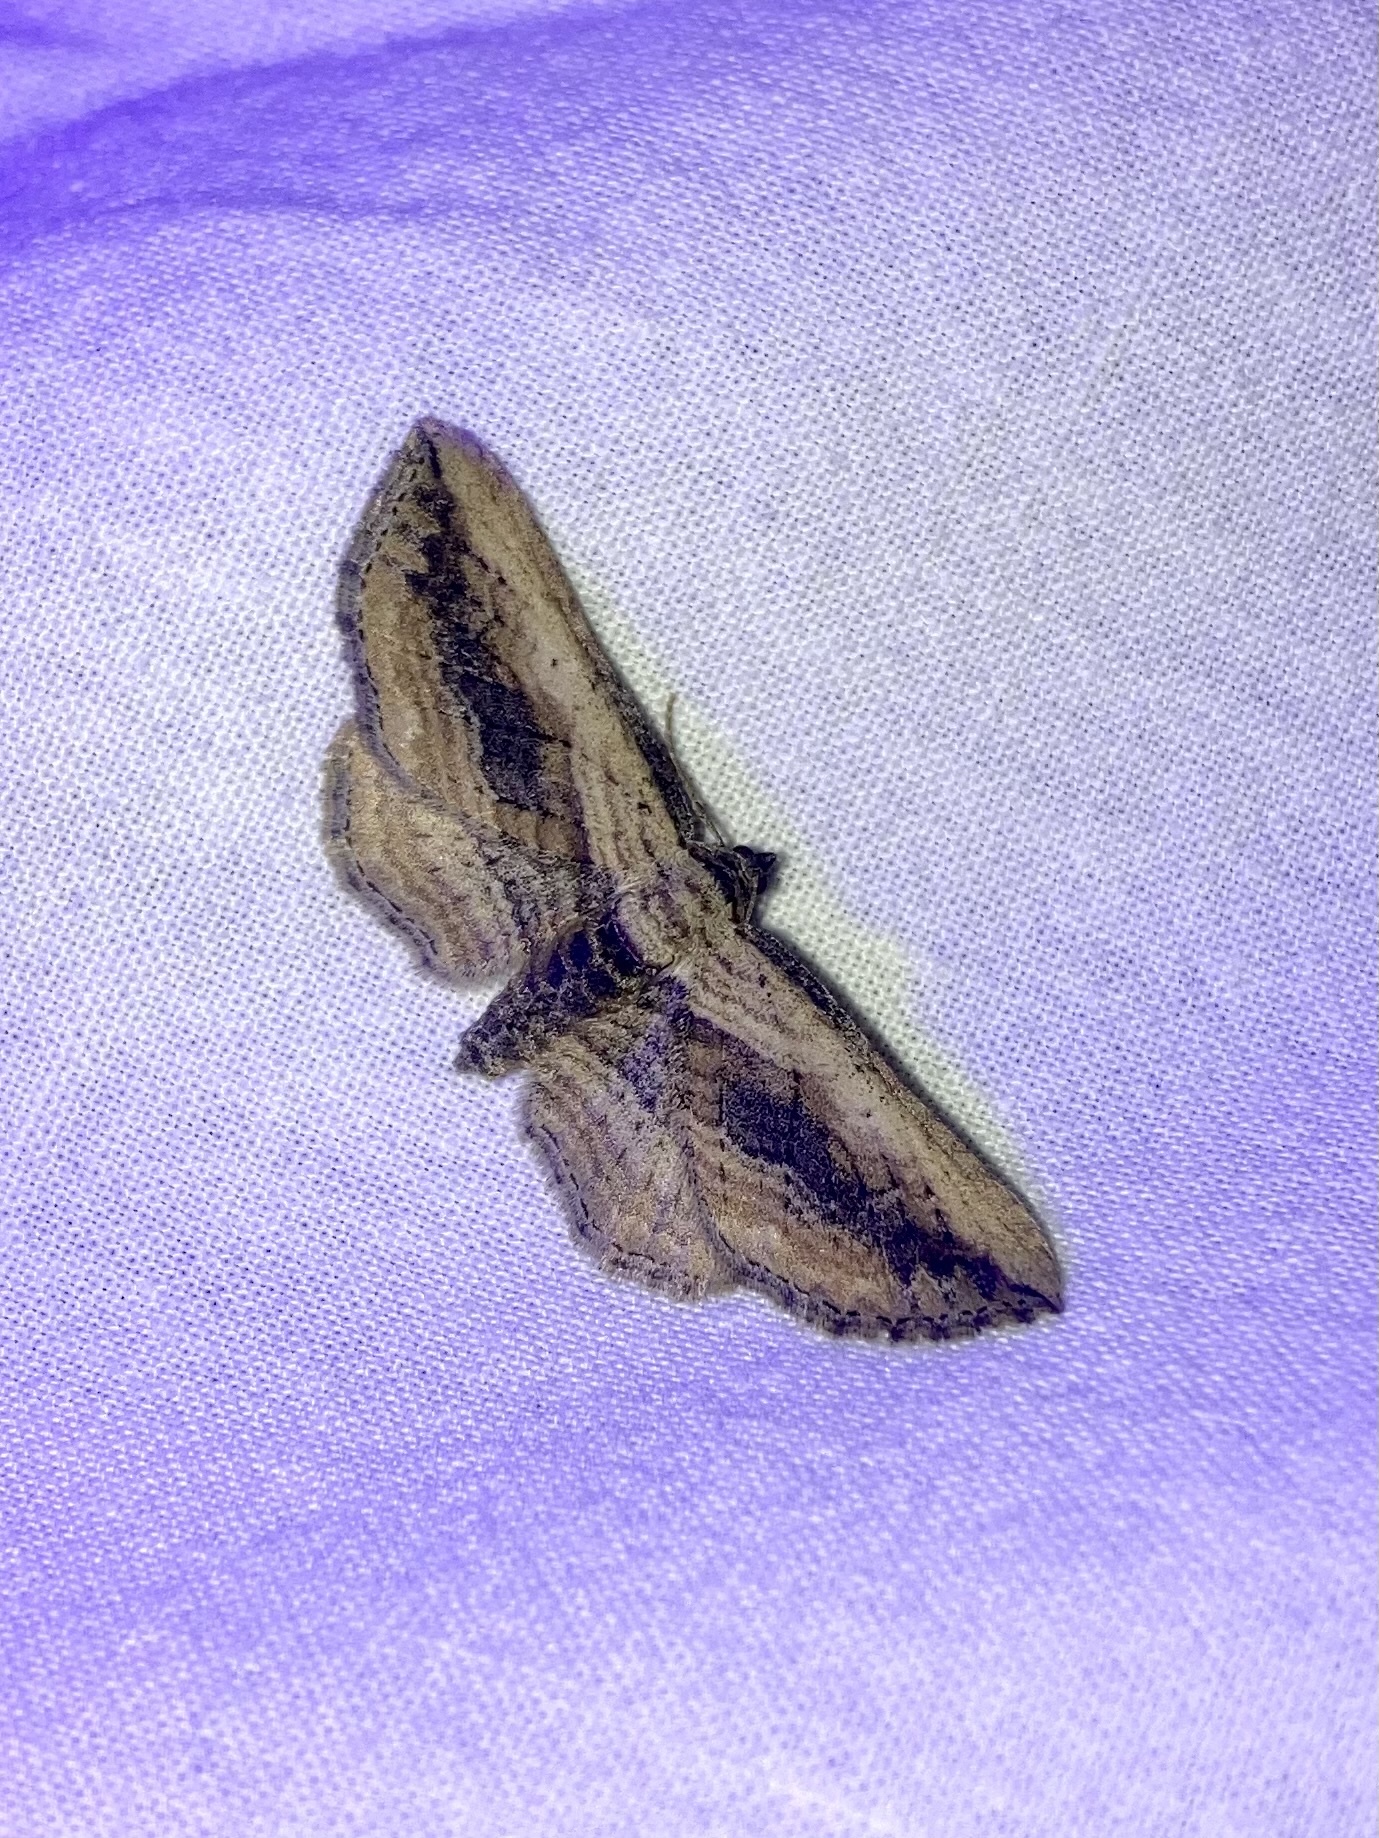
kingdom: Animalia
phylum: Arthropoda
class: Insecta
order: Lepidoptera
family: Geometridae
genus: Horisme
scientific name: Horisme vitalbata
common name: Small waved umber
